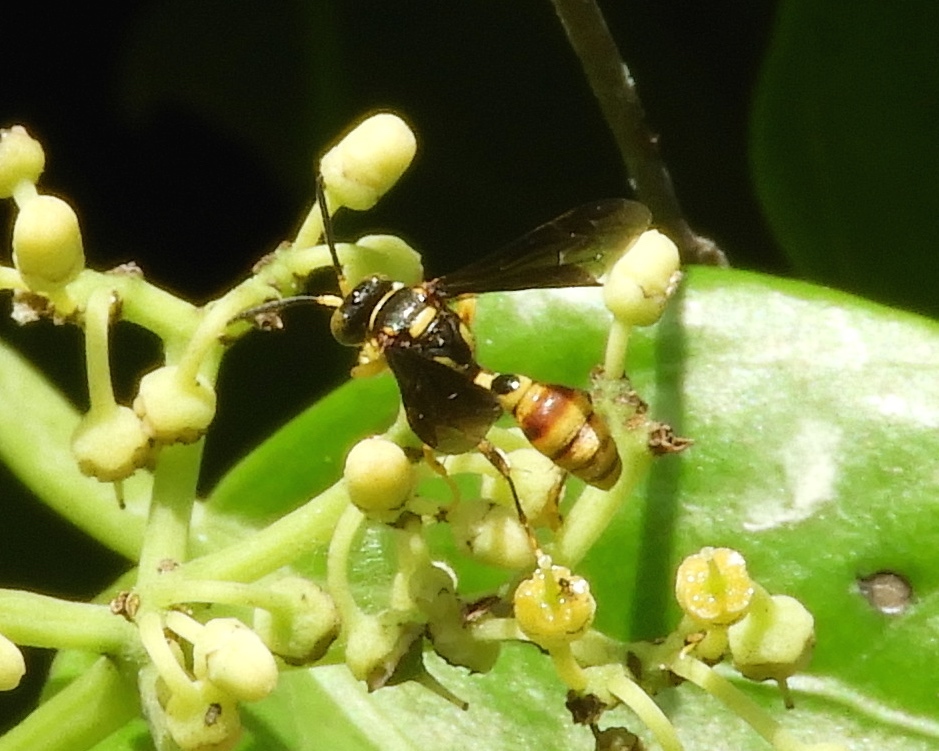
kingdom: Animalia
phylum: Arthropoda
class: Insecta
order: Hymenoptera
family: Crabronidae
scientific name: Crabronidae
